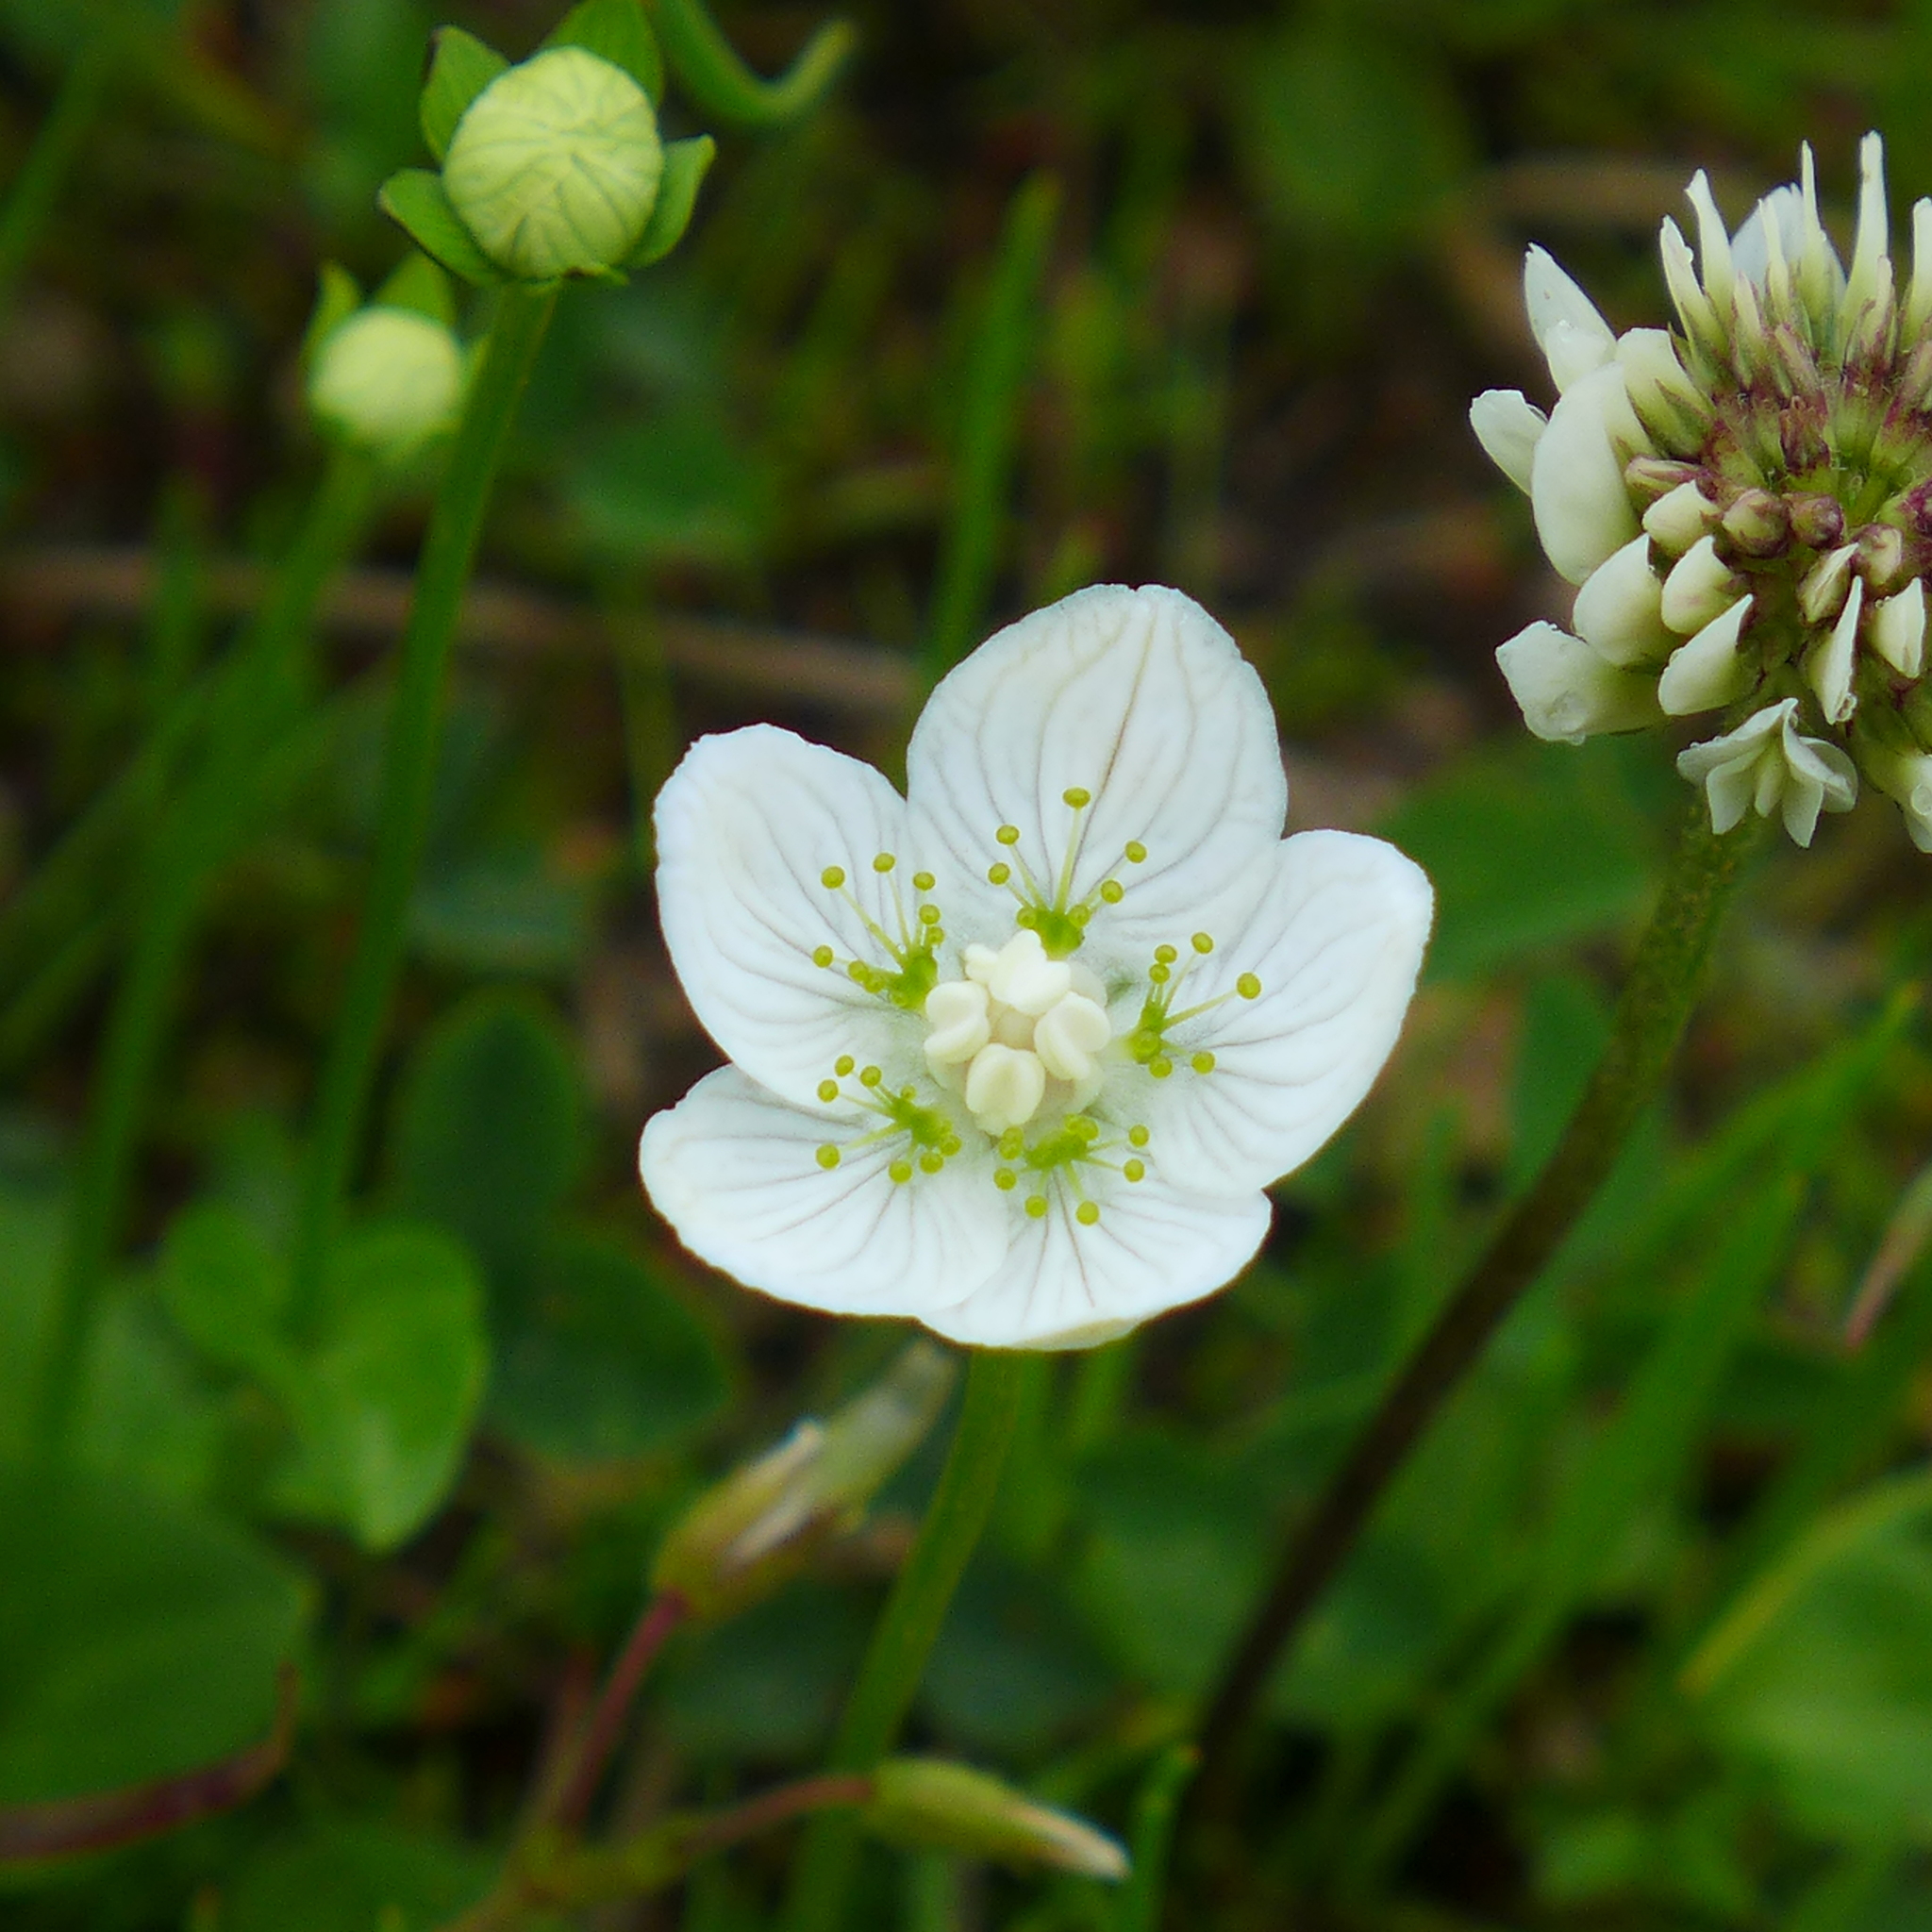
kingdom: Plantae
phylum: Tracheophyta
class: Magnoliopsida
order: Celastrales
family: Parnassiaceae
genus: Parnassia
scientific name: Parnassia palustris
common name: Grass-of-parnassus
